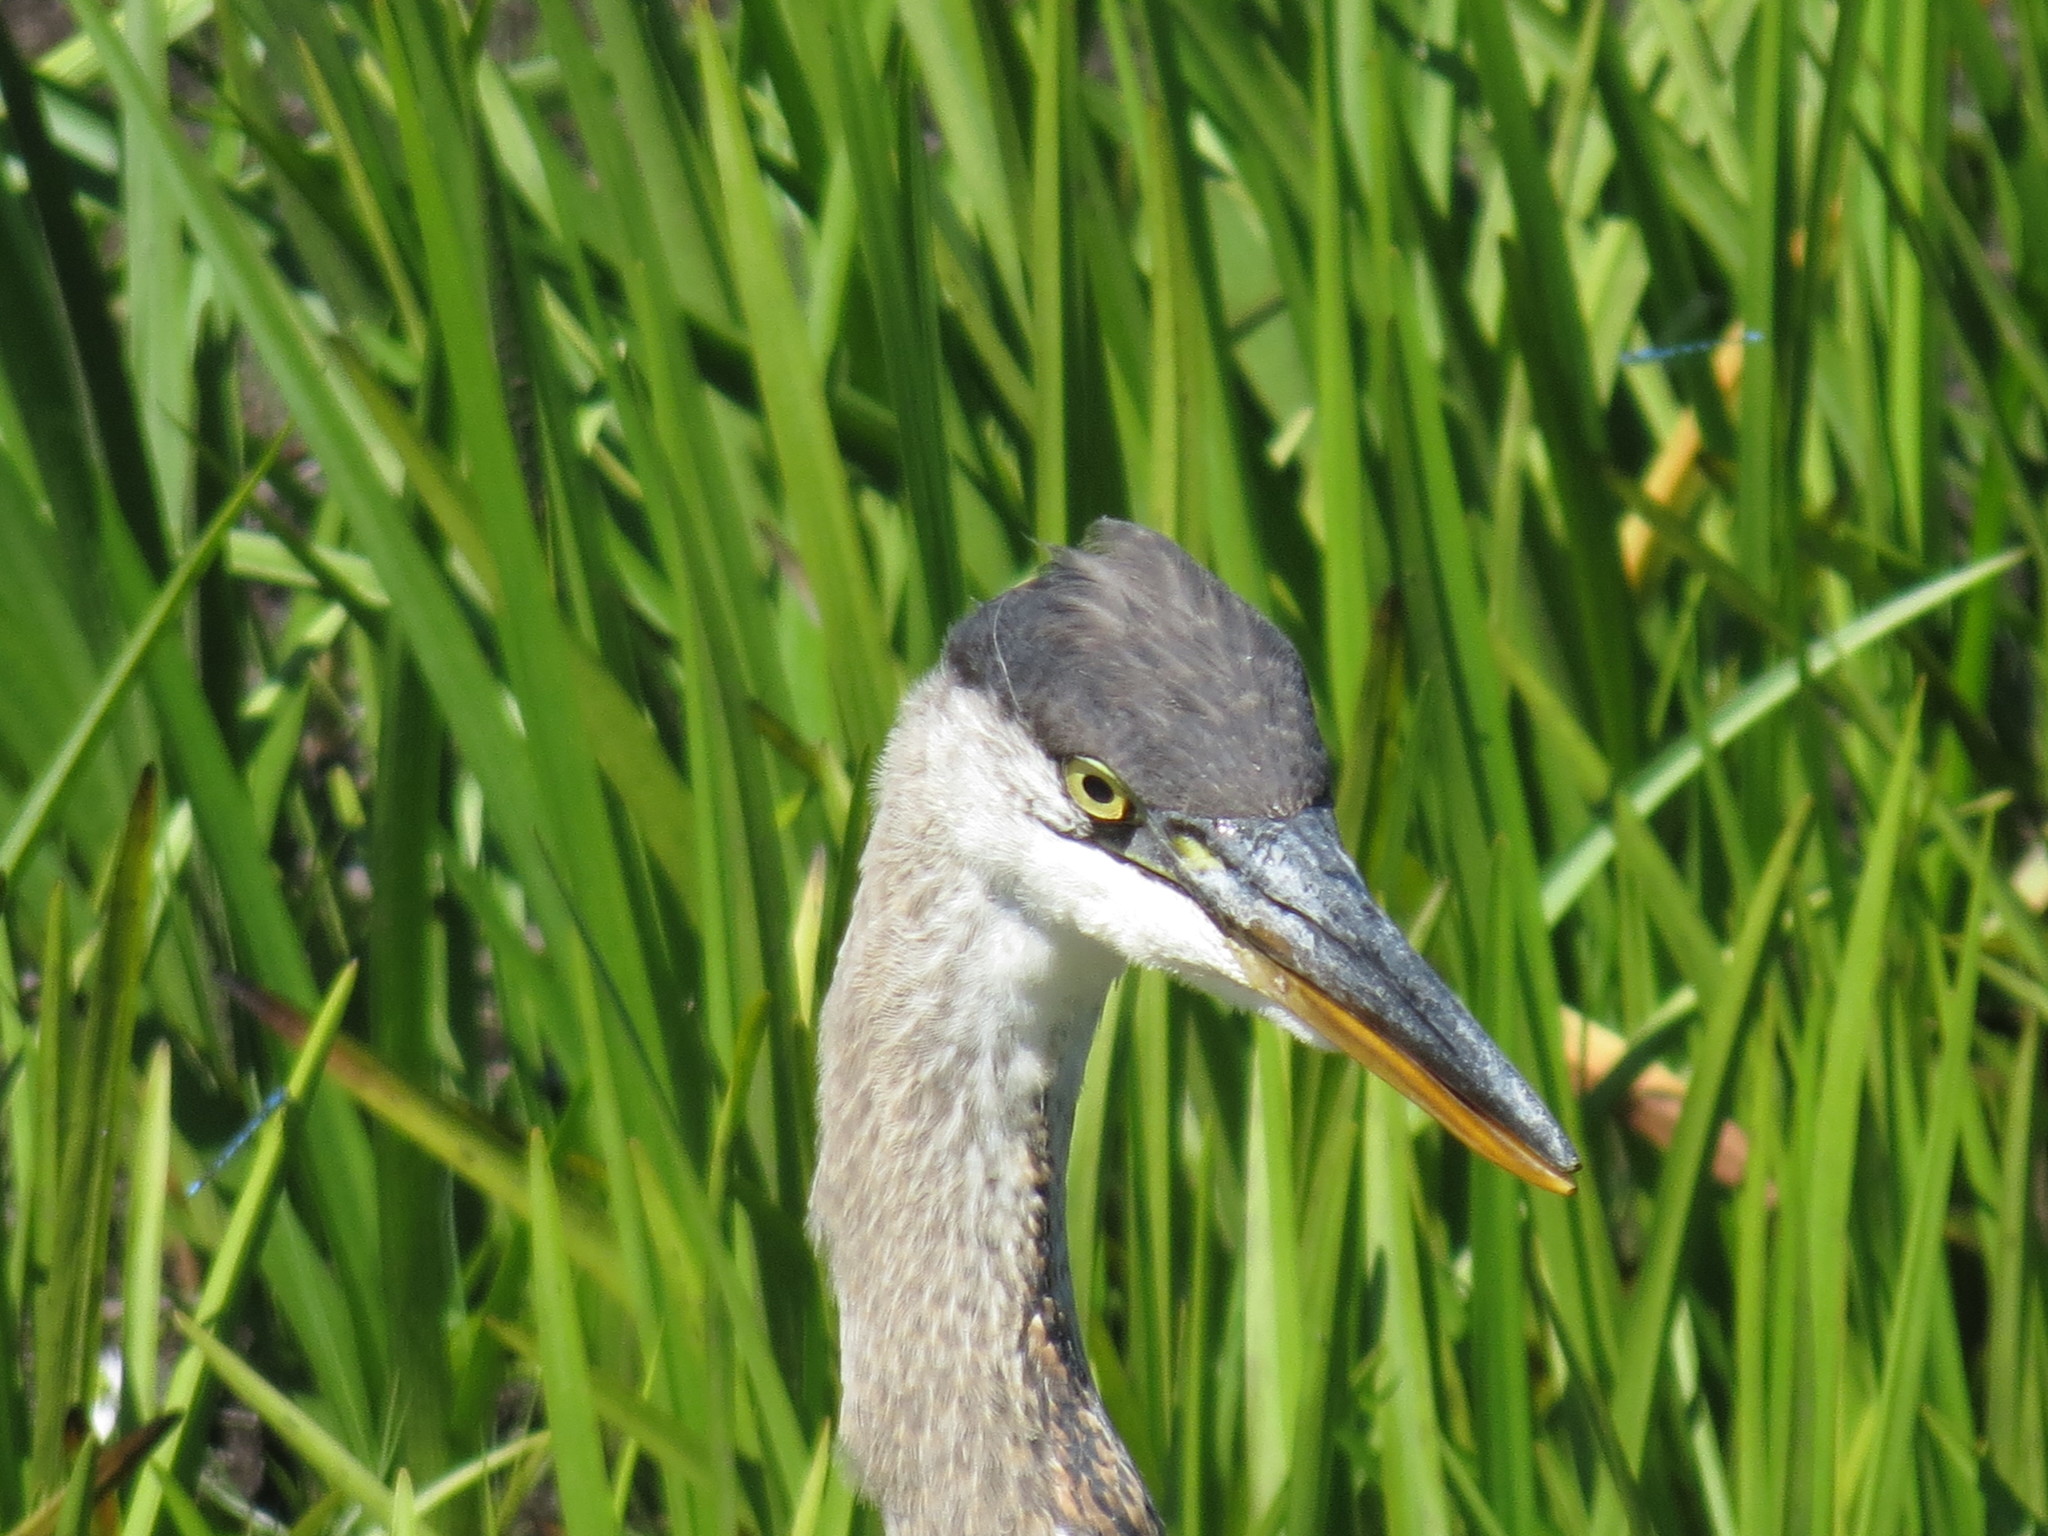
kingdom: Animalia
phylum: Chordata
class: Aves
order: Pelecaniformes
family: Ardeidae
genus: Ardea
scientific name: Ardea herodias
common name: Great blue heron
